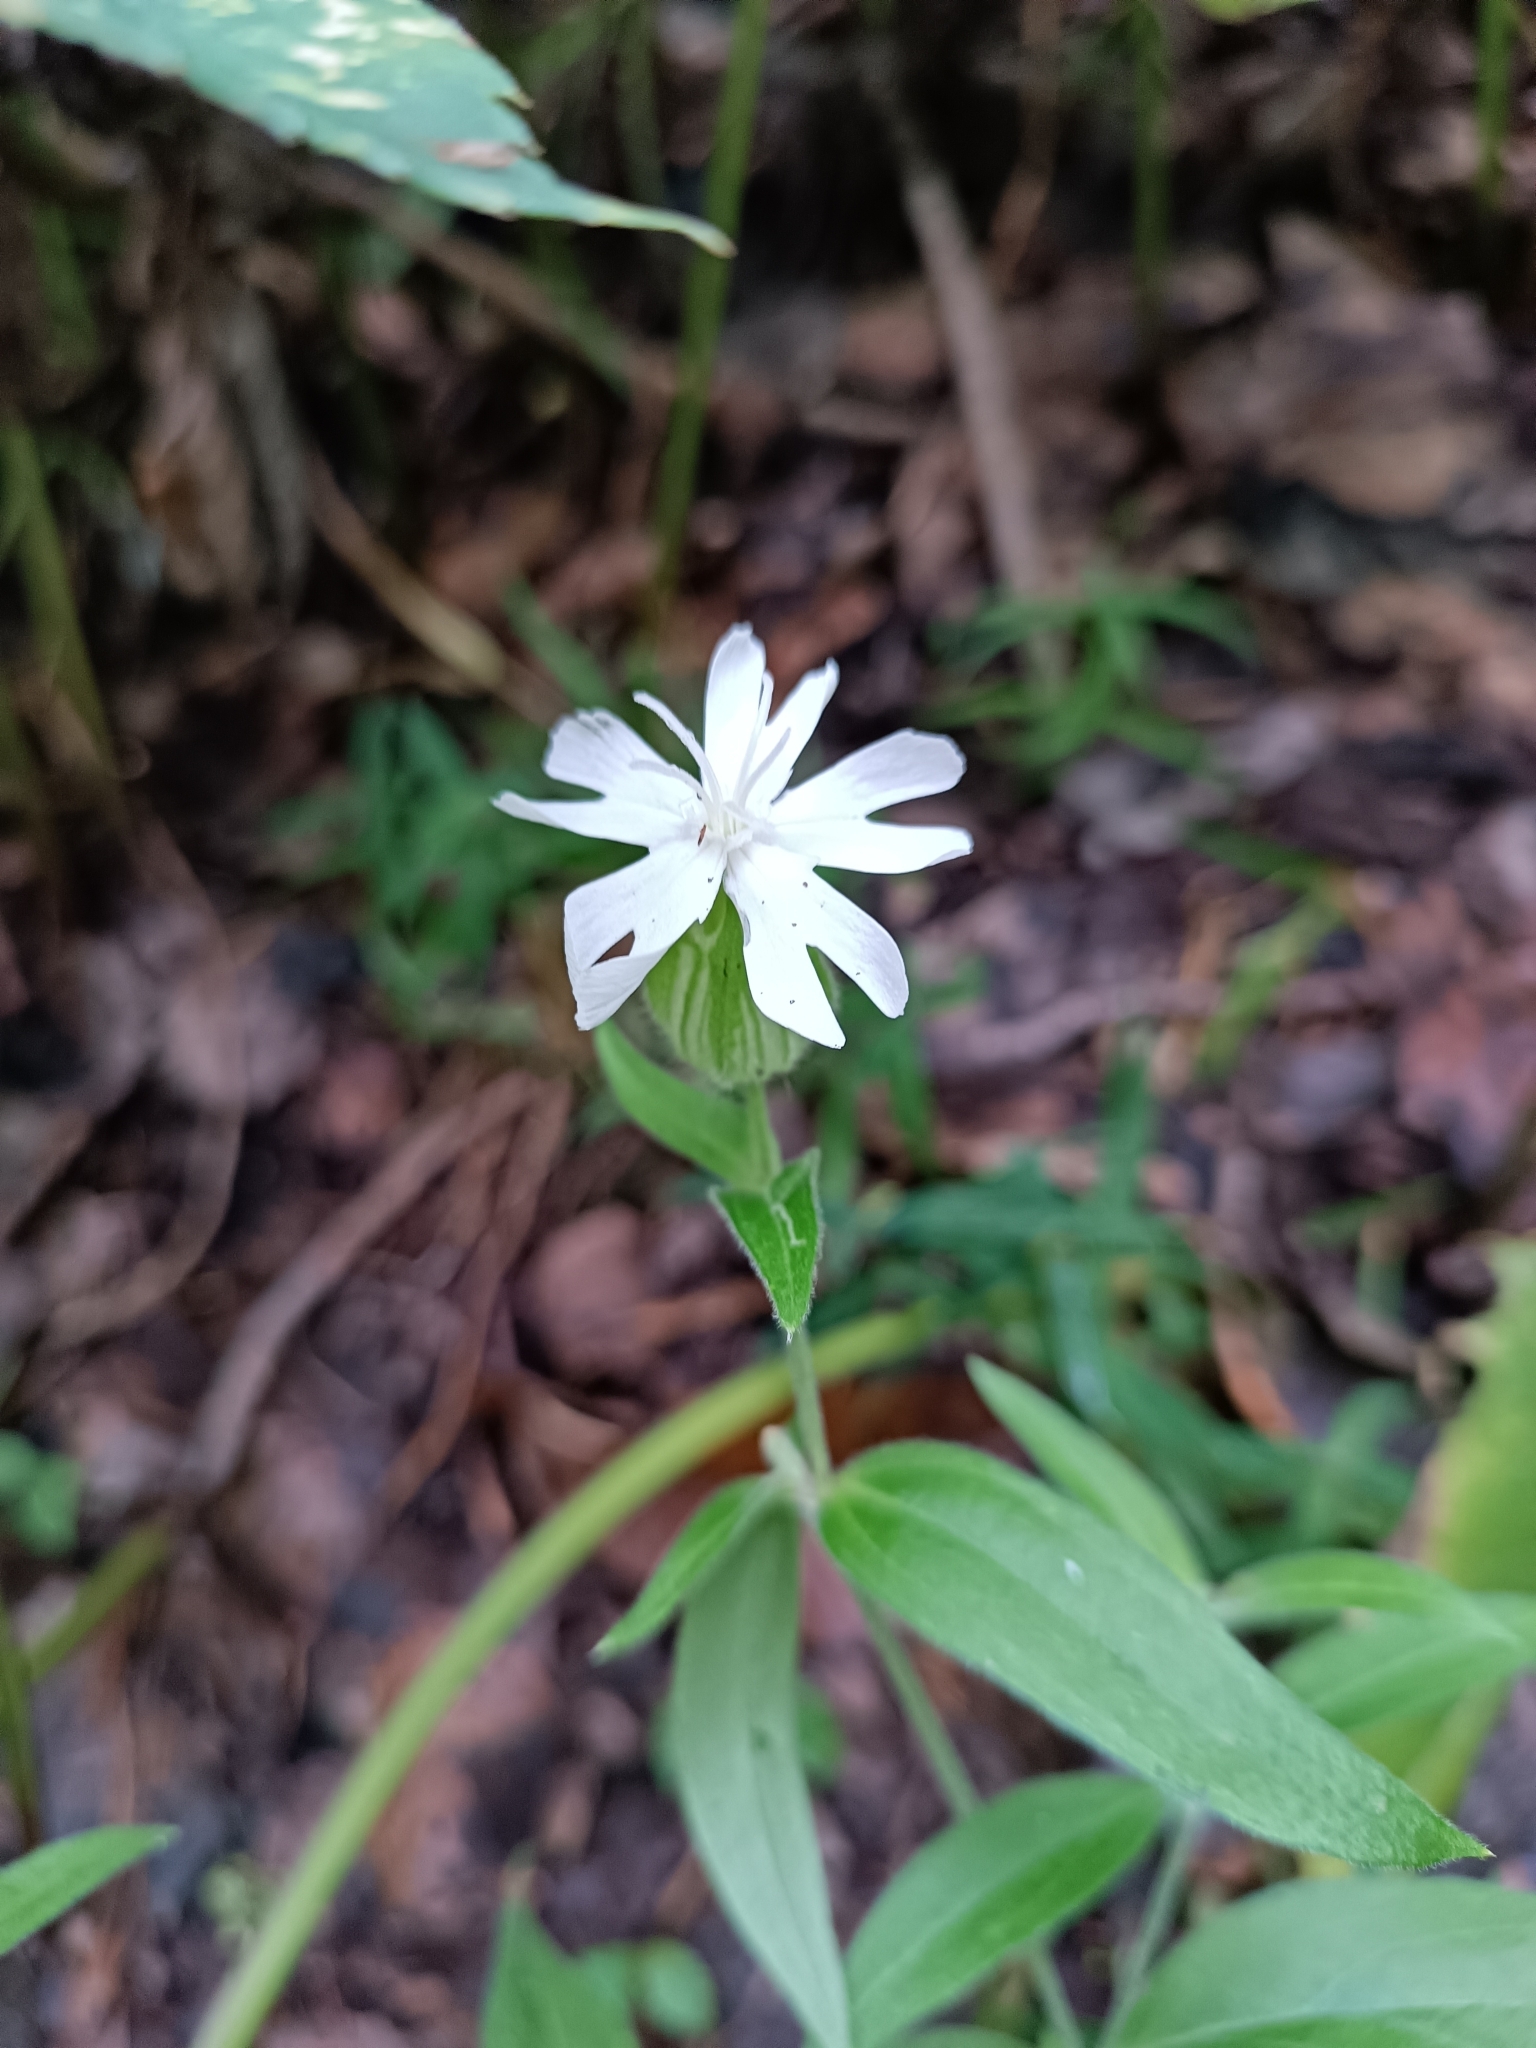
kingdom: Plantae
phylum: Tracheophyta
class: Magnoliopsida
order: Caryophyllales
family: Caryophyllaceae
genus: Silene
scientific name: Silene latifolia
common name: White campion
